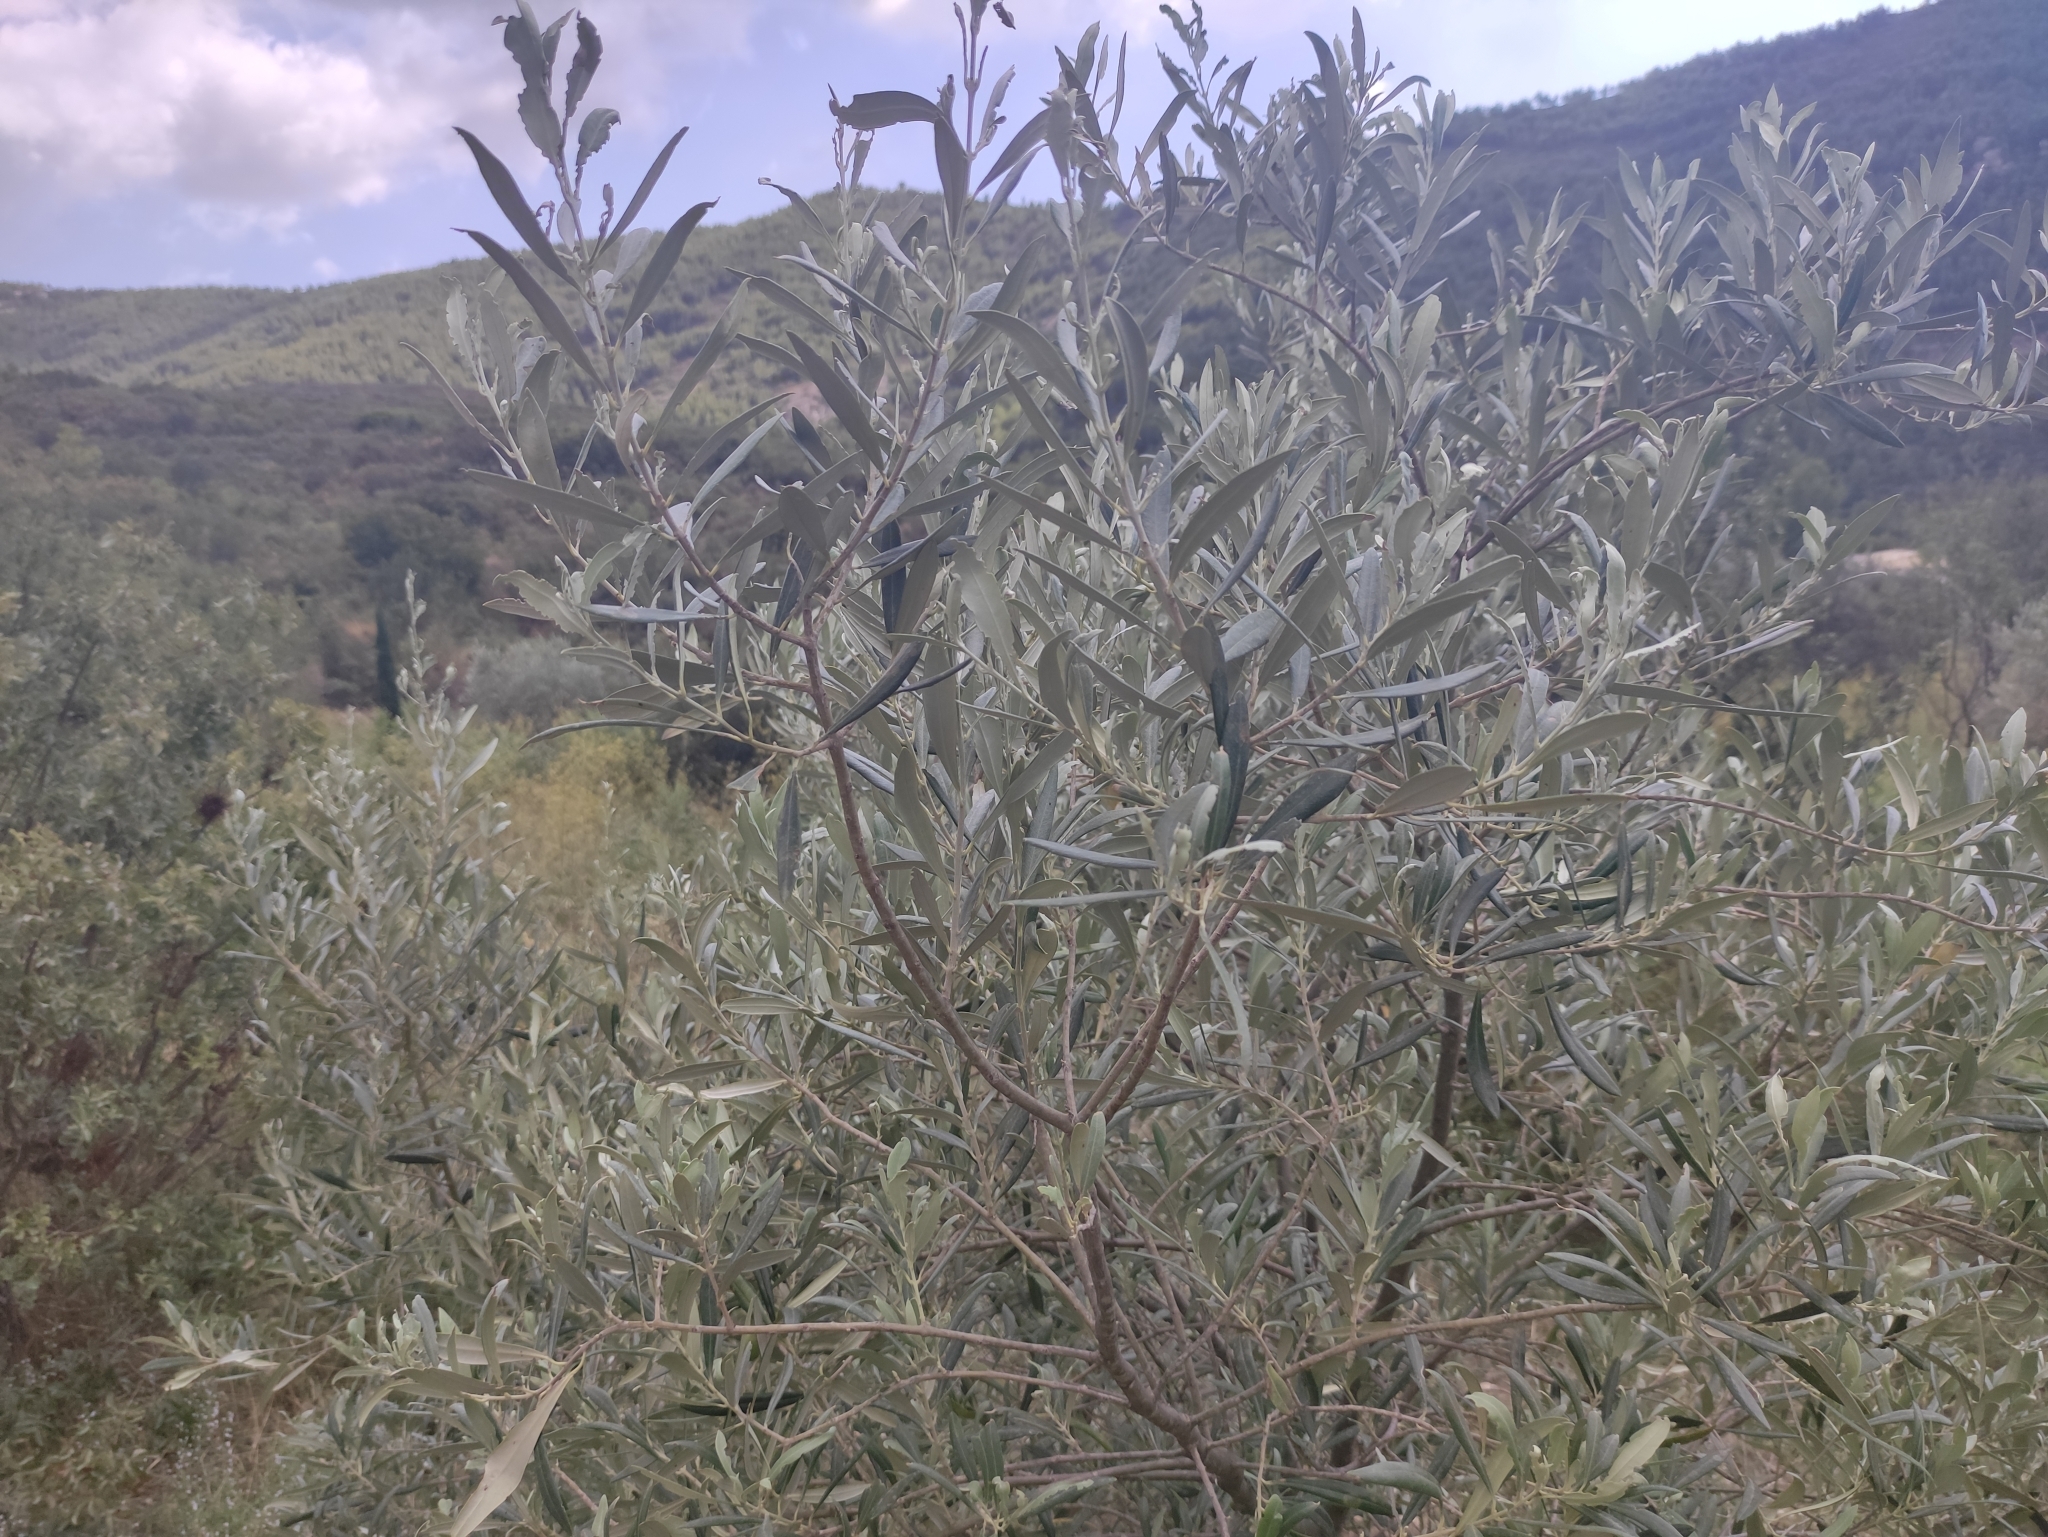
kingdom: Plantae
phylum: Tracheophyta
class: Magnoliopsida
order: Lamiales
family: Oleaceae
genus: Olea
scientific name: Olea europaea
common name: Olive
